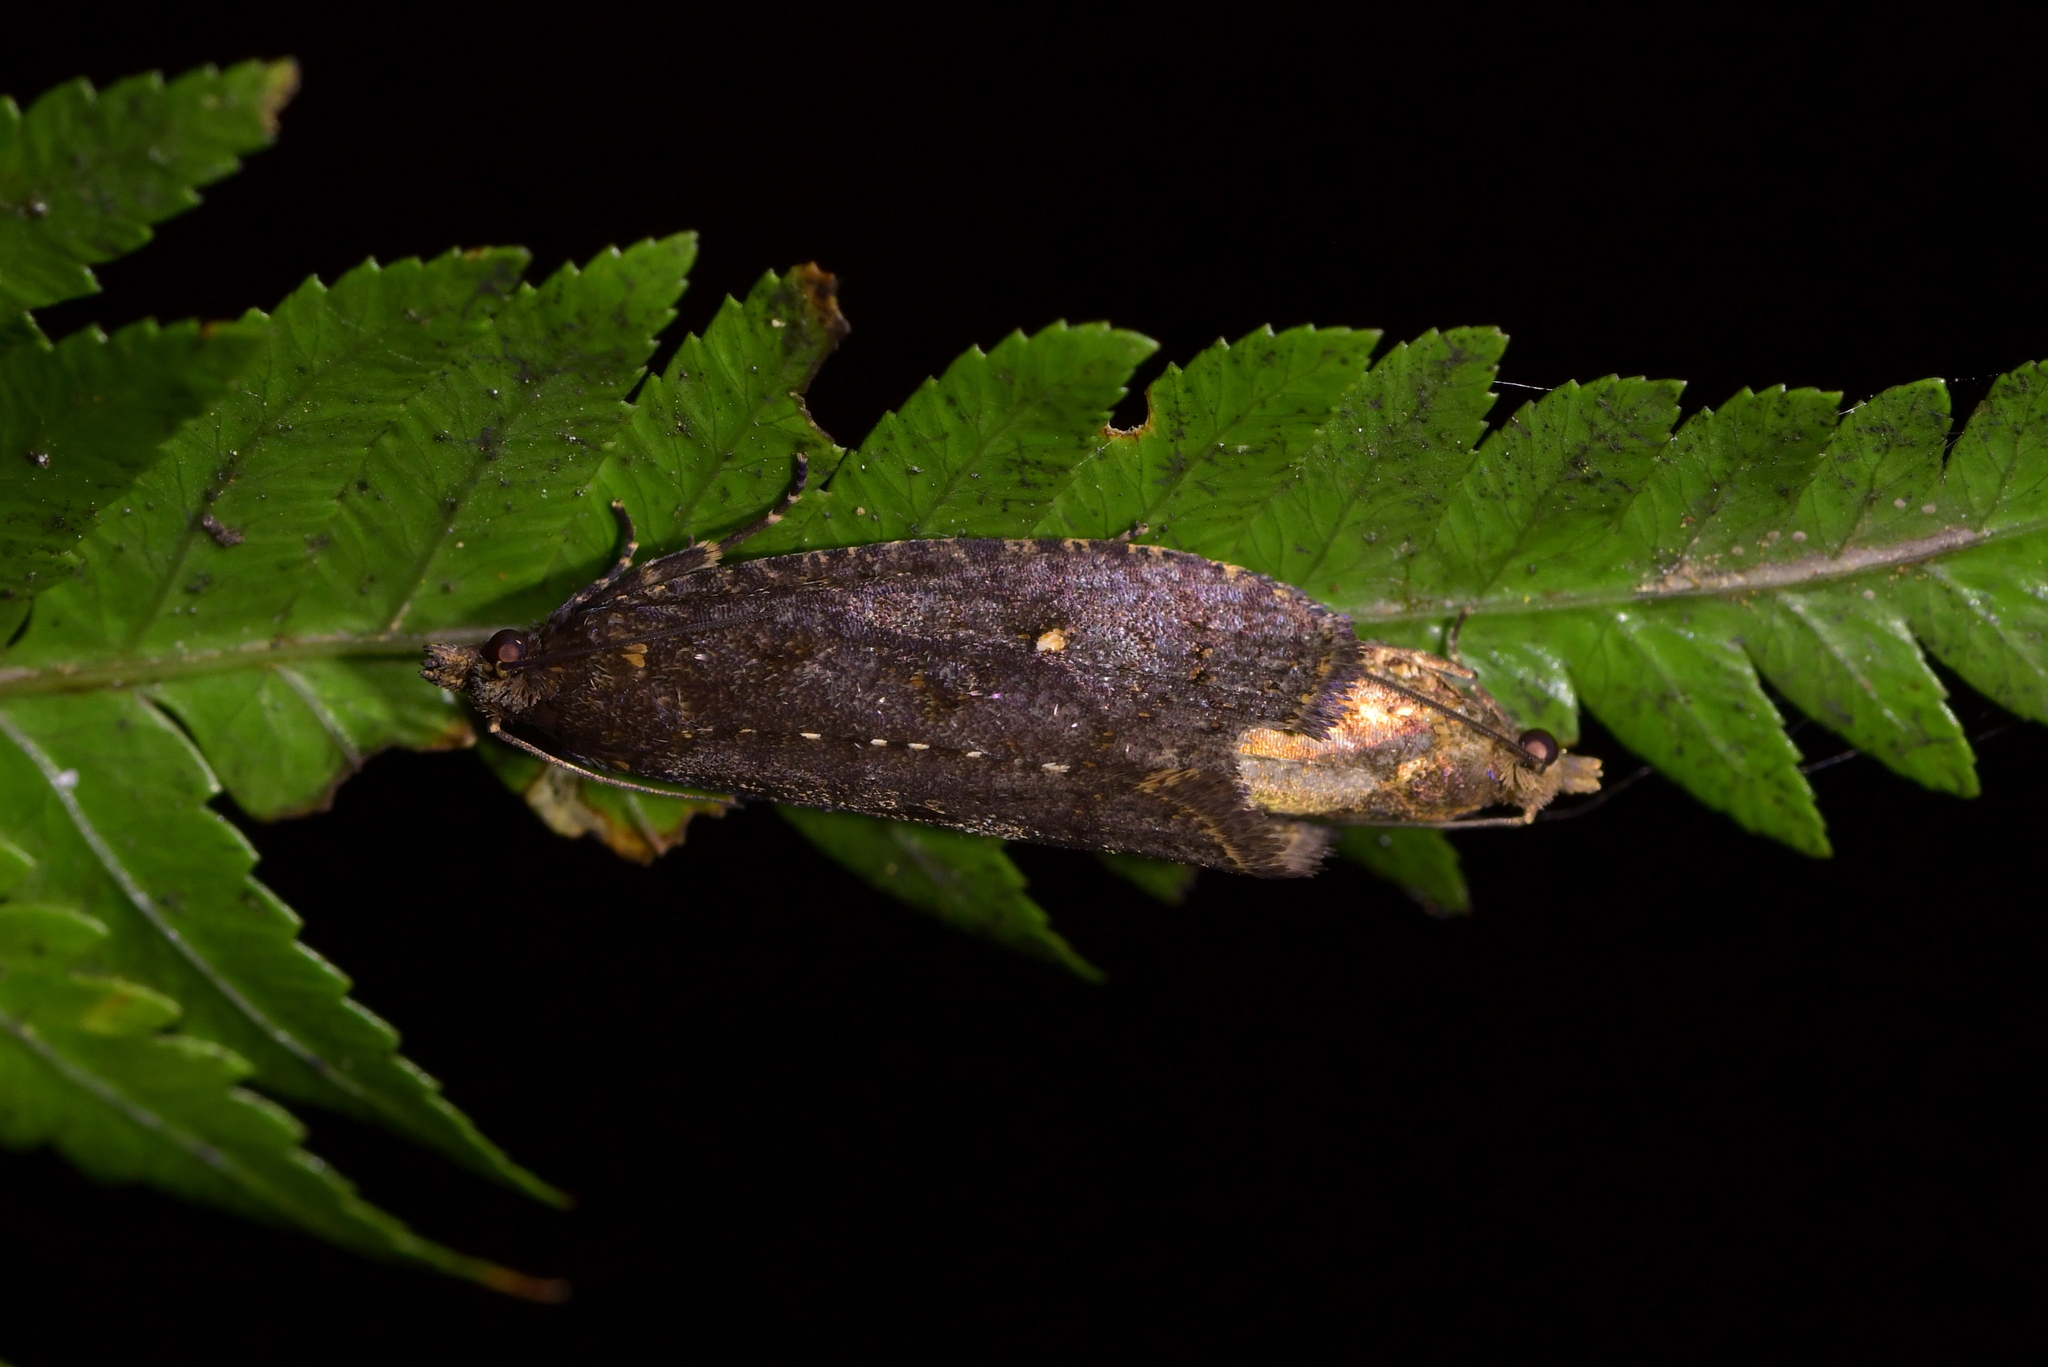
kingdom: Animalia
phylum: Arthropoda
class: Insecta
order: Lepidoptera
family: Tortricidae
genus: Cryptaspasma
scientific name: Cryptaspasma querula
